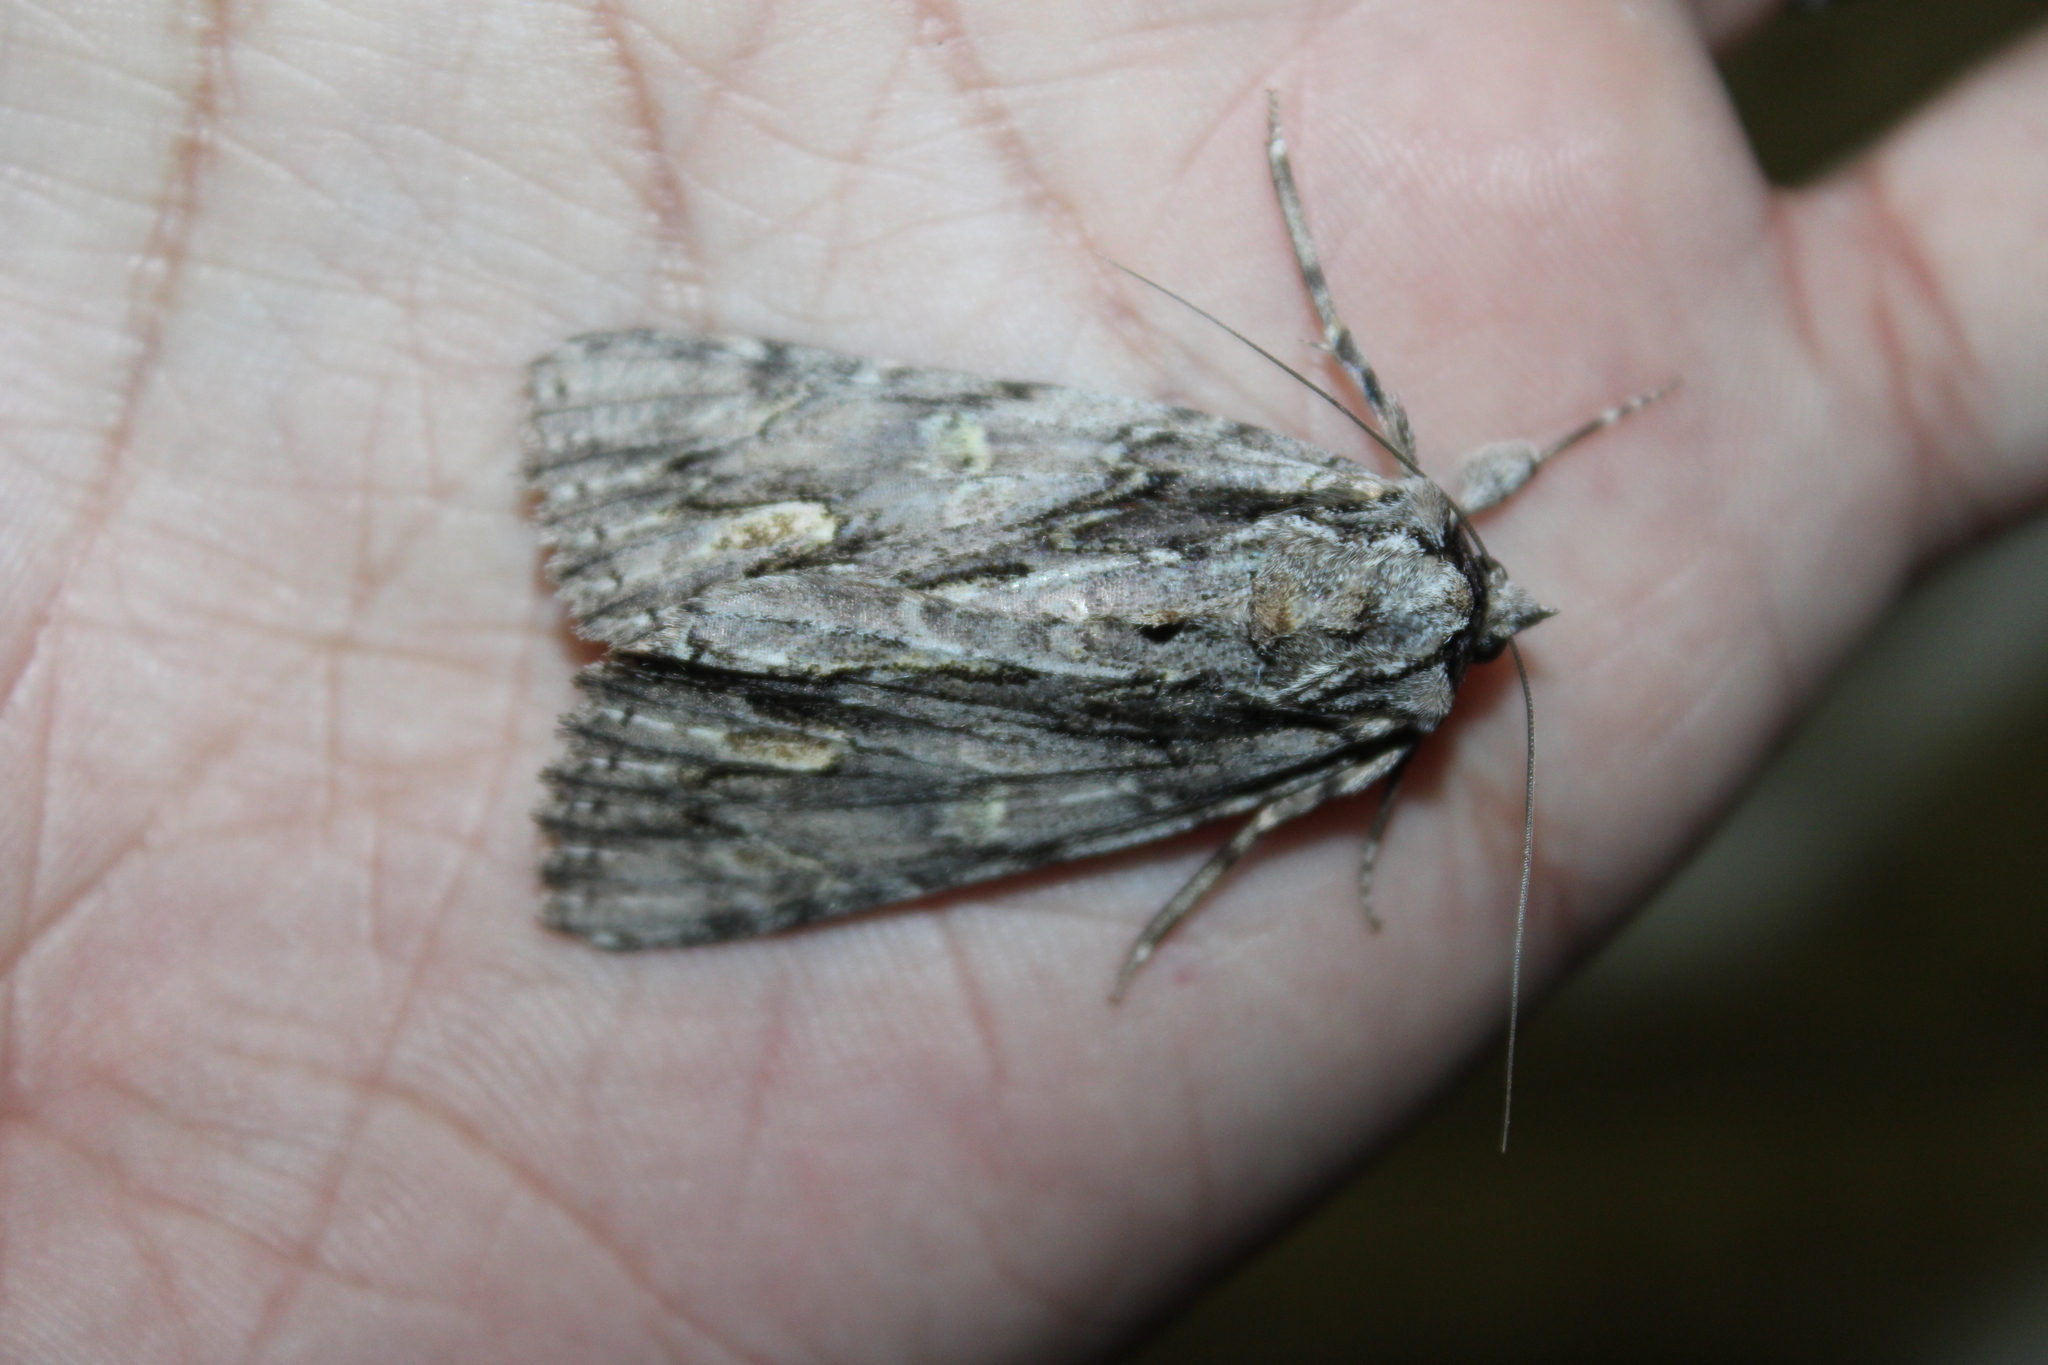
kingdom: Animalia
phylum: Arthropoda
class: Insecta
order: Lepidoptera
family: Erebidae
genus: Catocala
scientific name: Catocala coccinata
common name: Scarlet underwing
